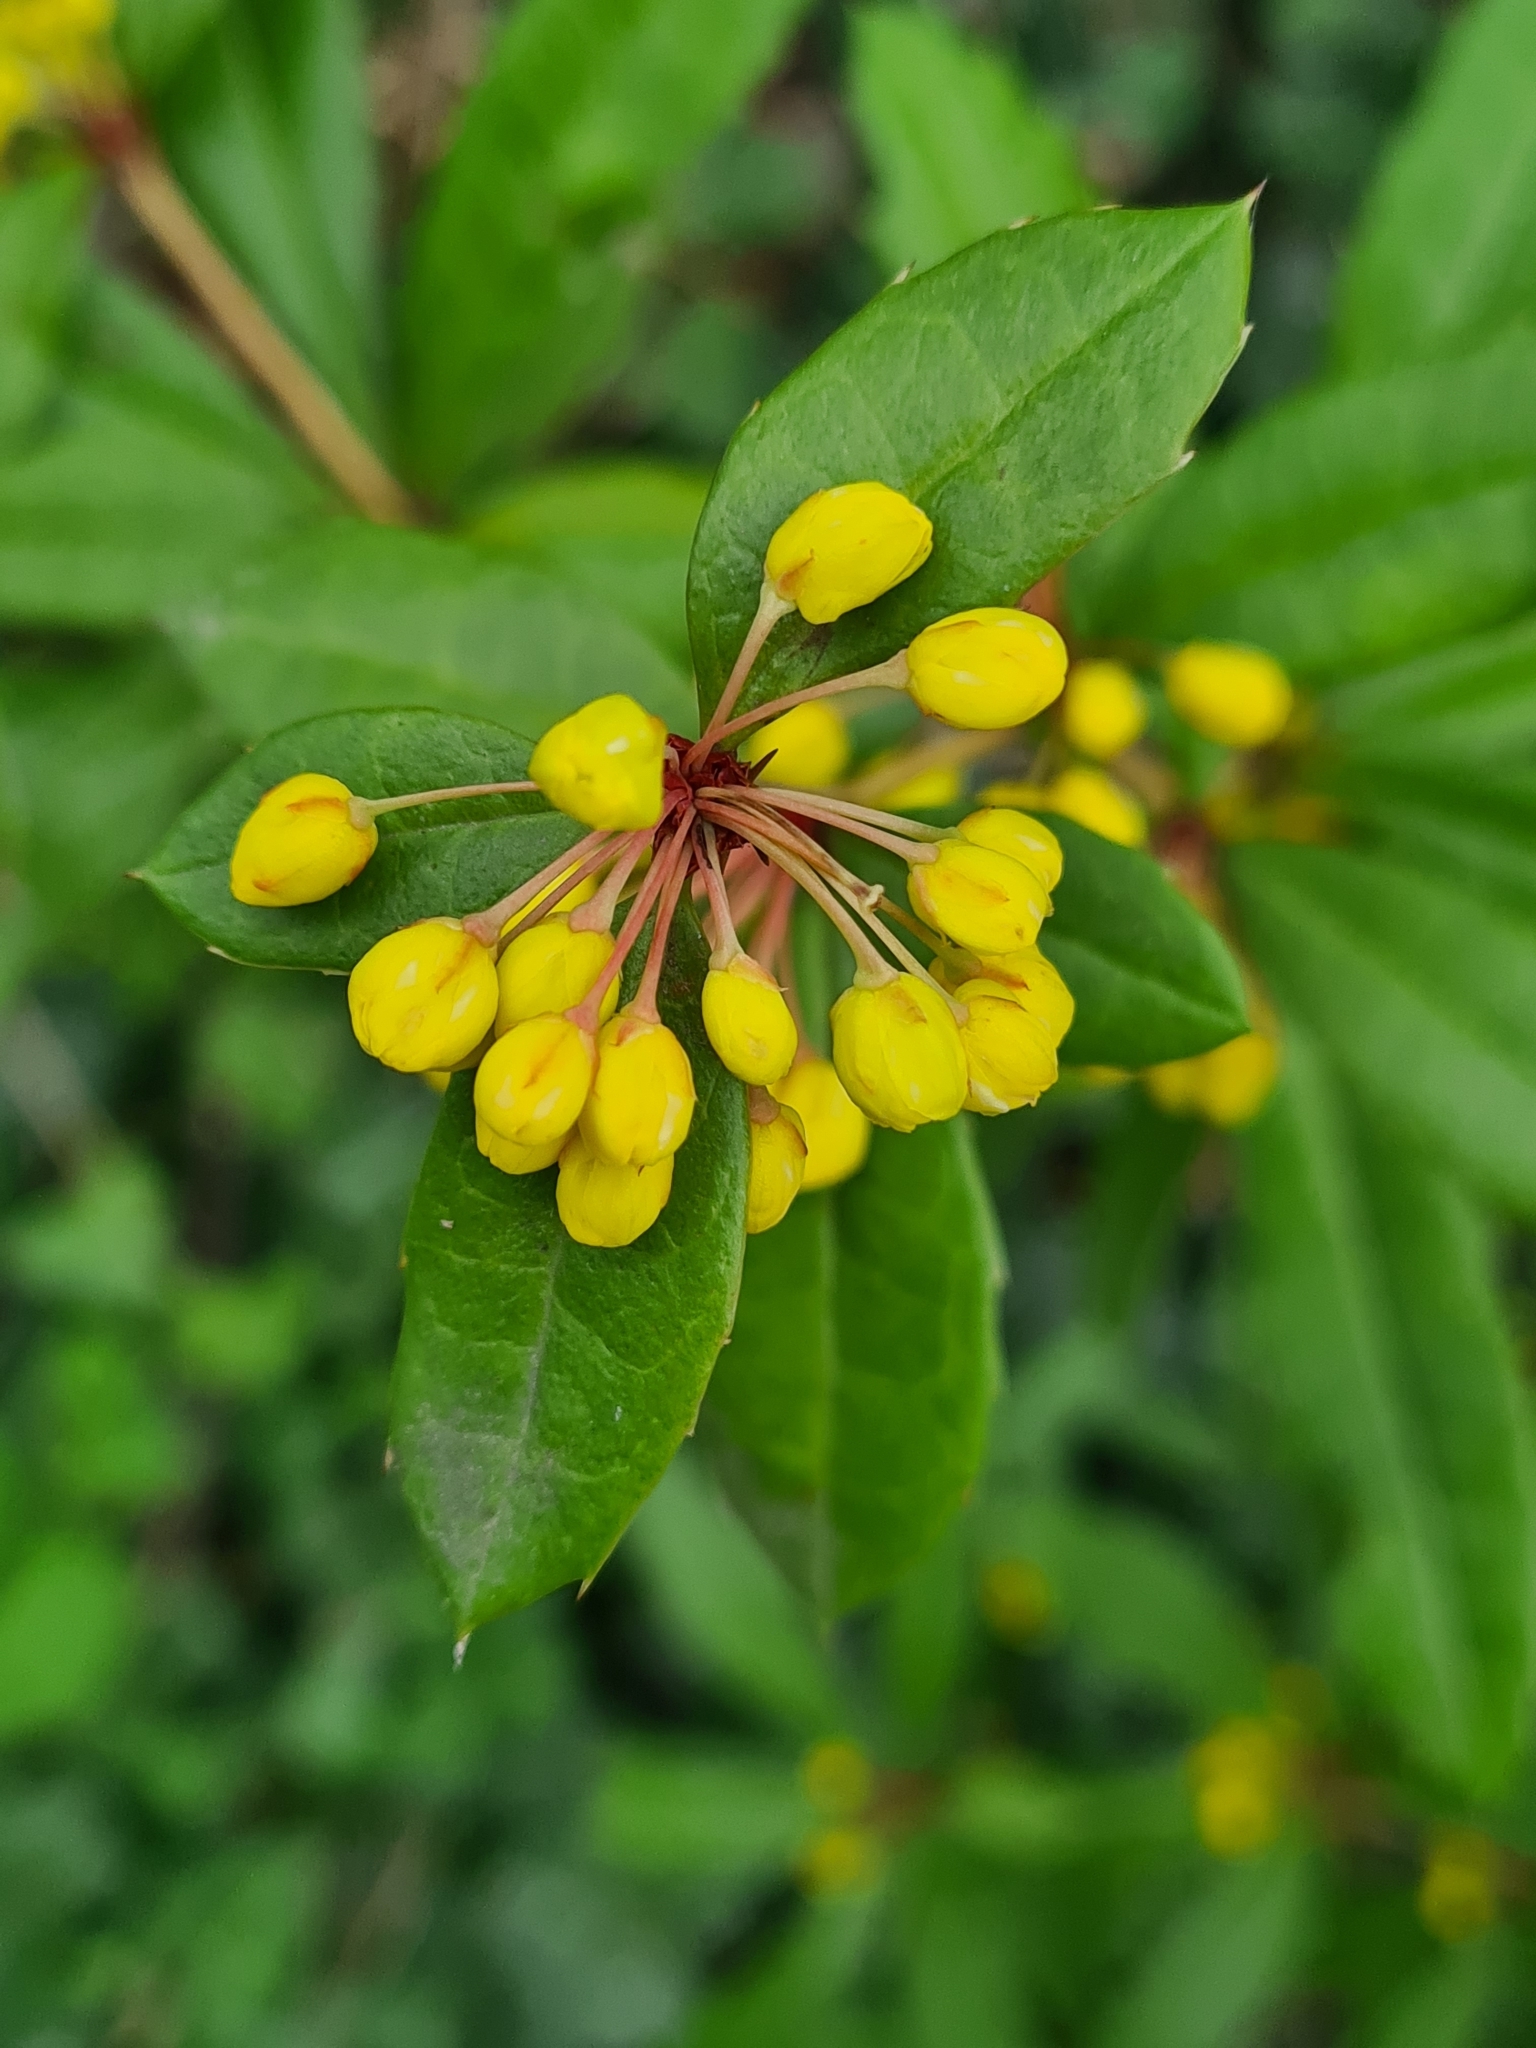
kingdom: Plantae
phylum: Tracheophyta
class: Magnoliopsida
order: Ranunculales
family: Berberidaceae
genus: Berberis
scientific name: Berberis julianae
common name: Wintergreen barberry
